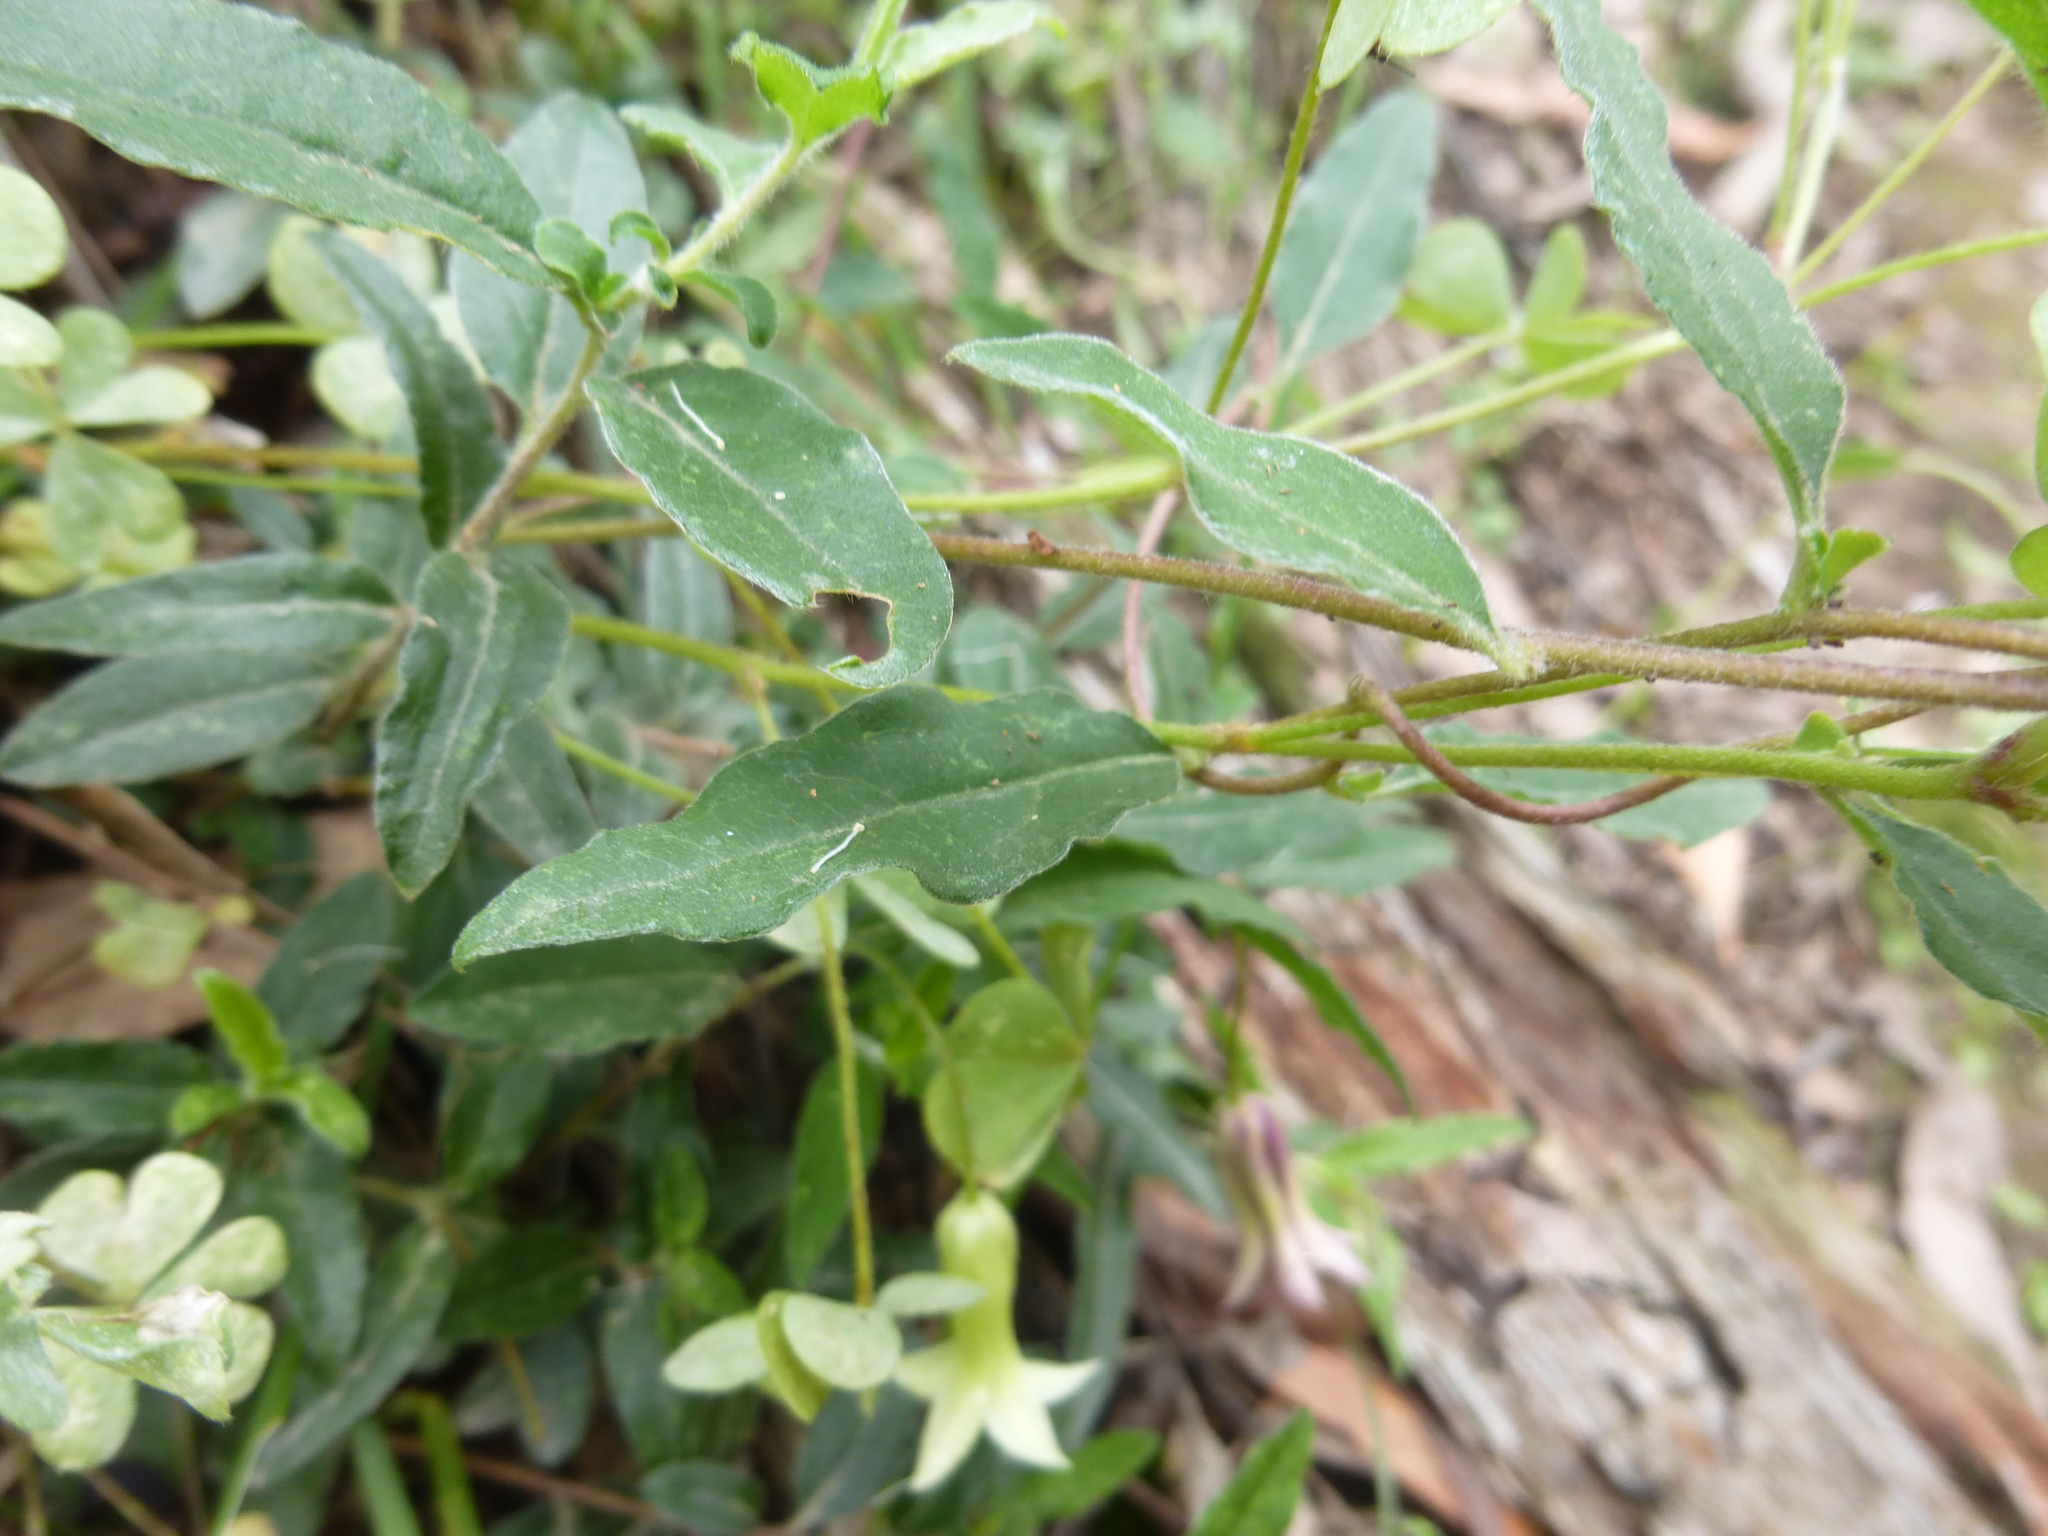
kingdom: Plantae
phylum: Tracheophyta
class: Magnoliopsida
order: Apiales
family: Pittosporaceae
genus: Billardiera
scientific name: Billardiera mutabilis
